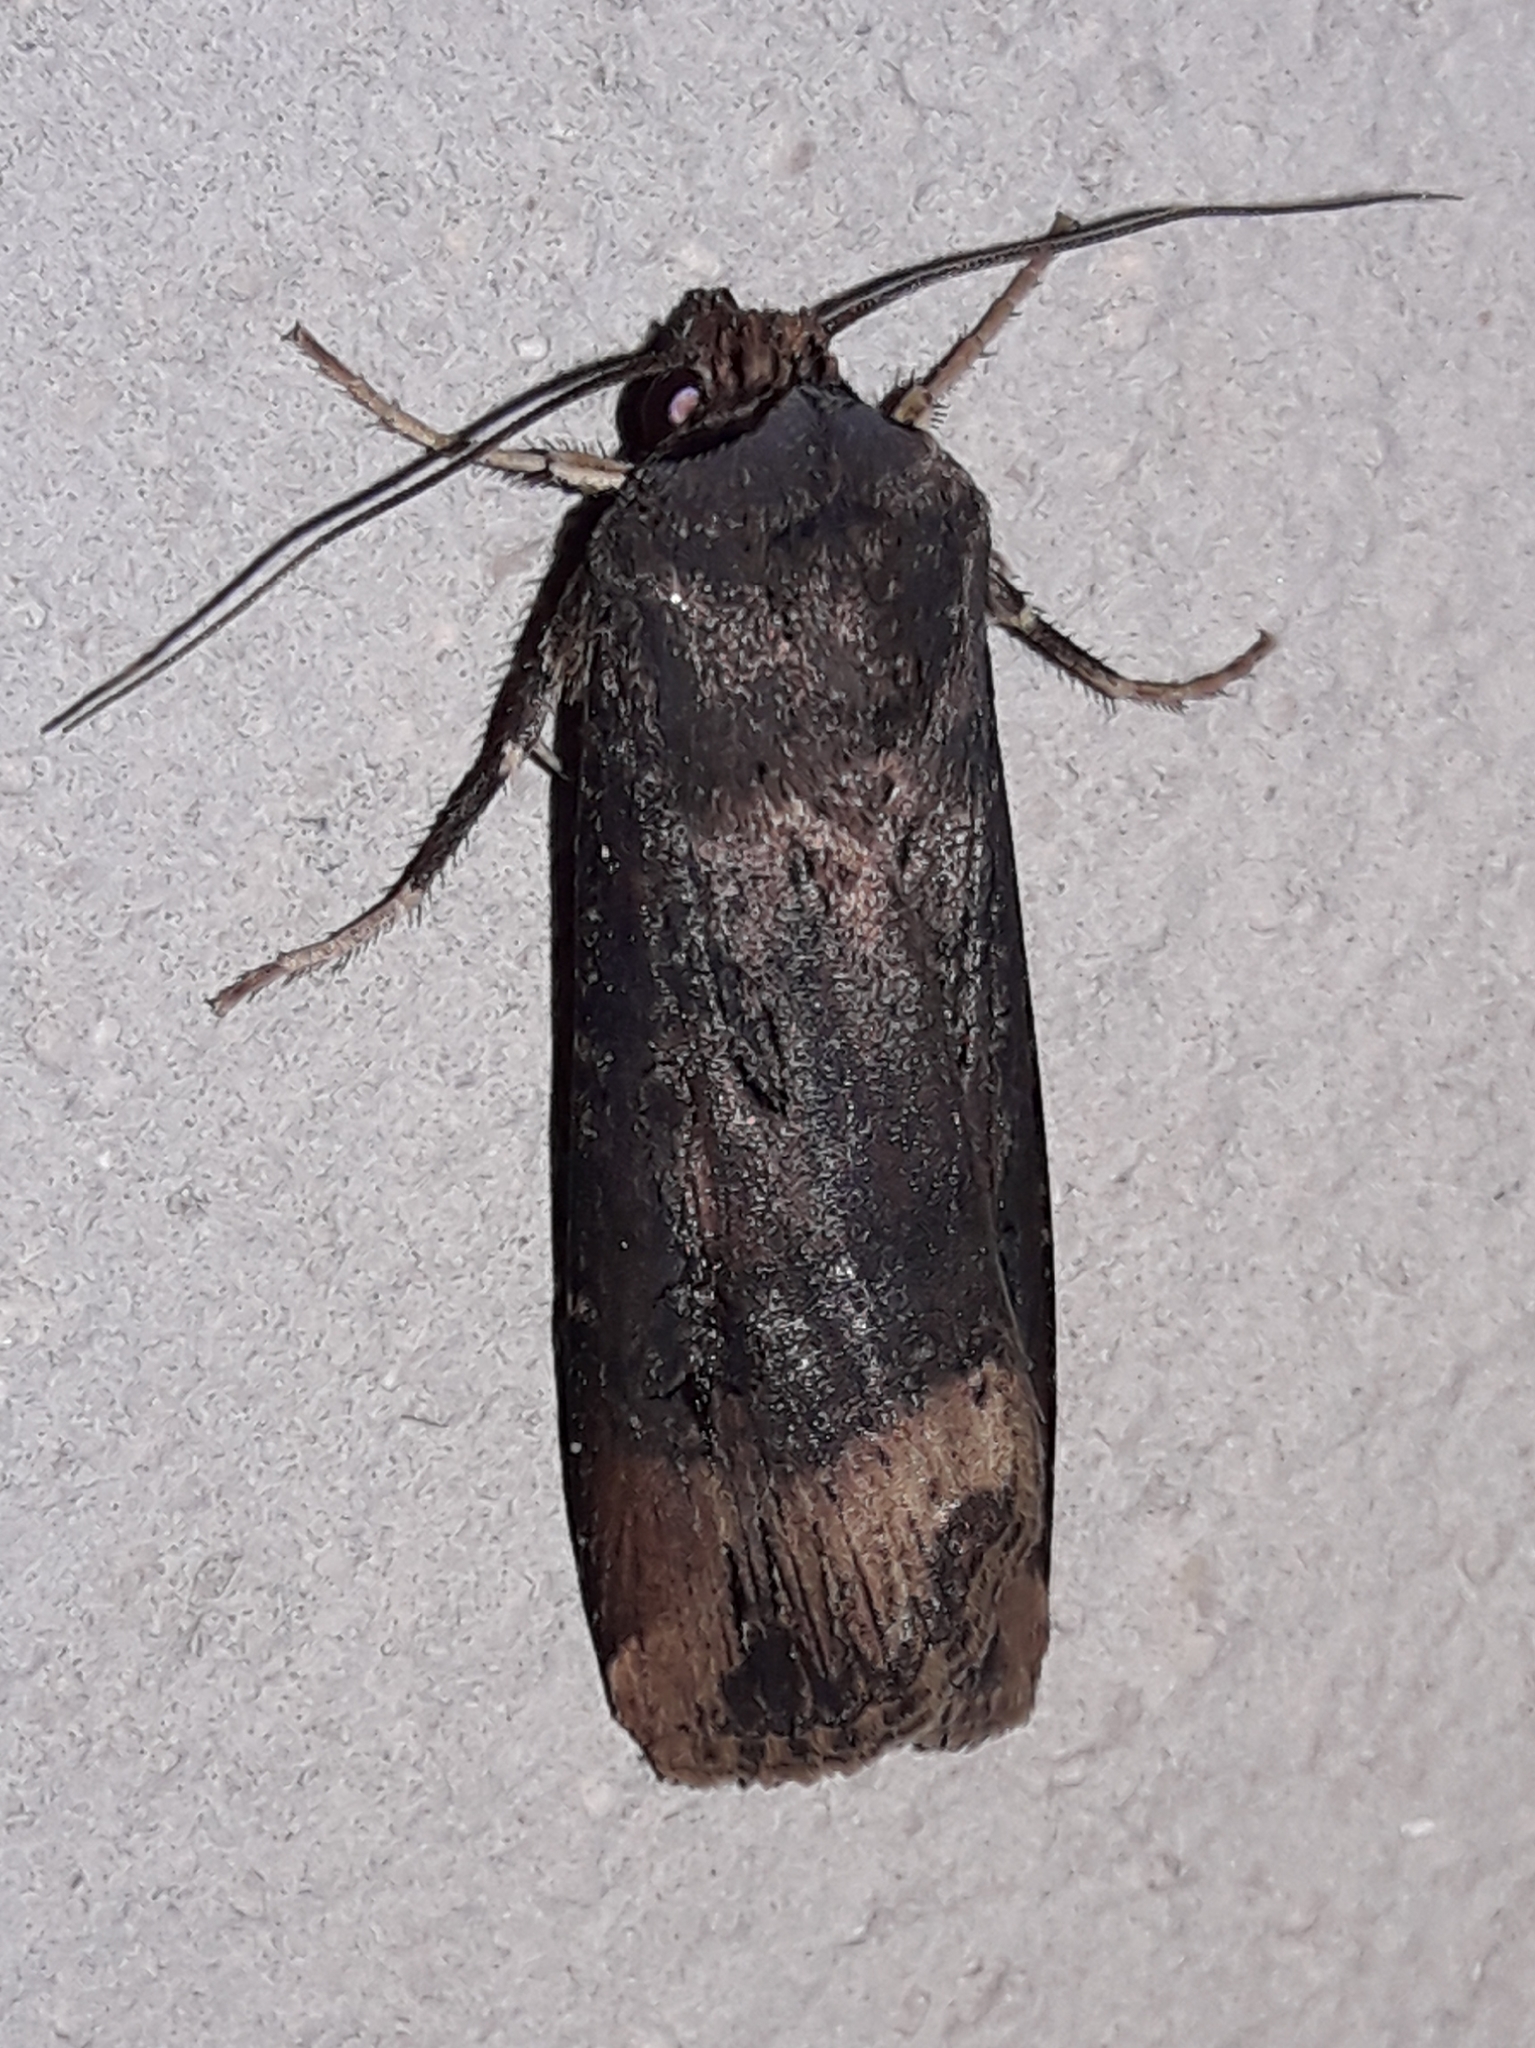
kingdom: Animalia
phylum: Arthropoda
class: Insecta
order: Lepidoptera
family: Noctuidae
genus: Agrotis
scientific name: Agrotis ipsilon
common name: Dark sword-grass
